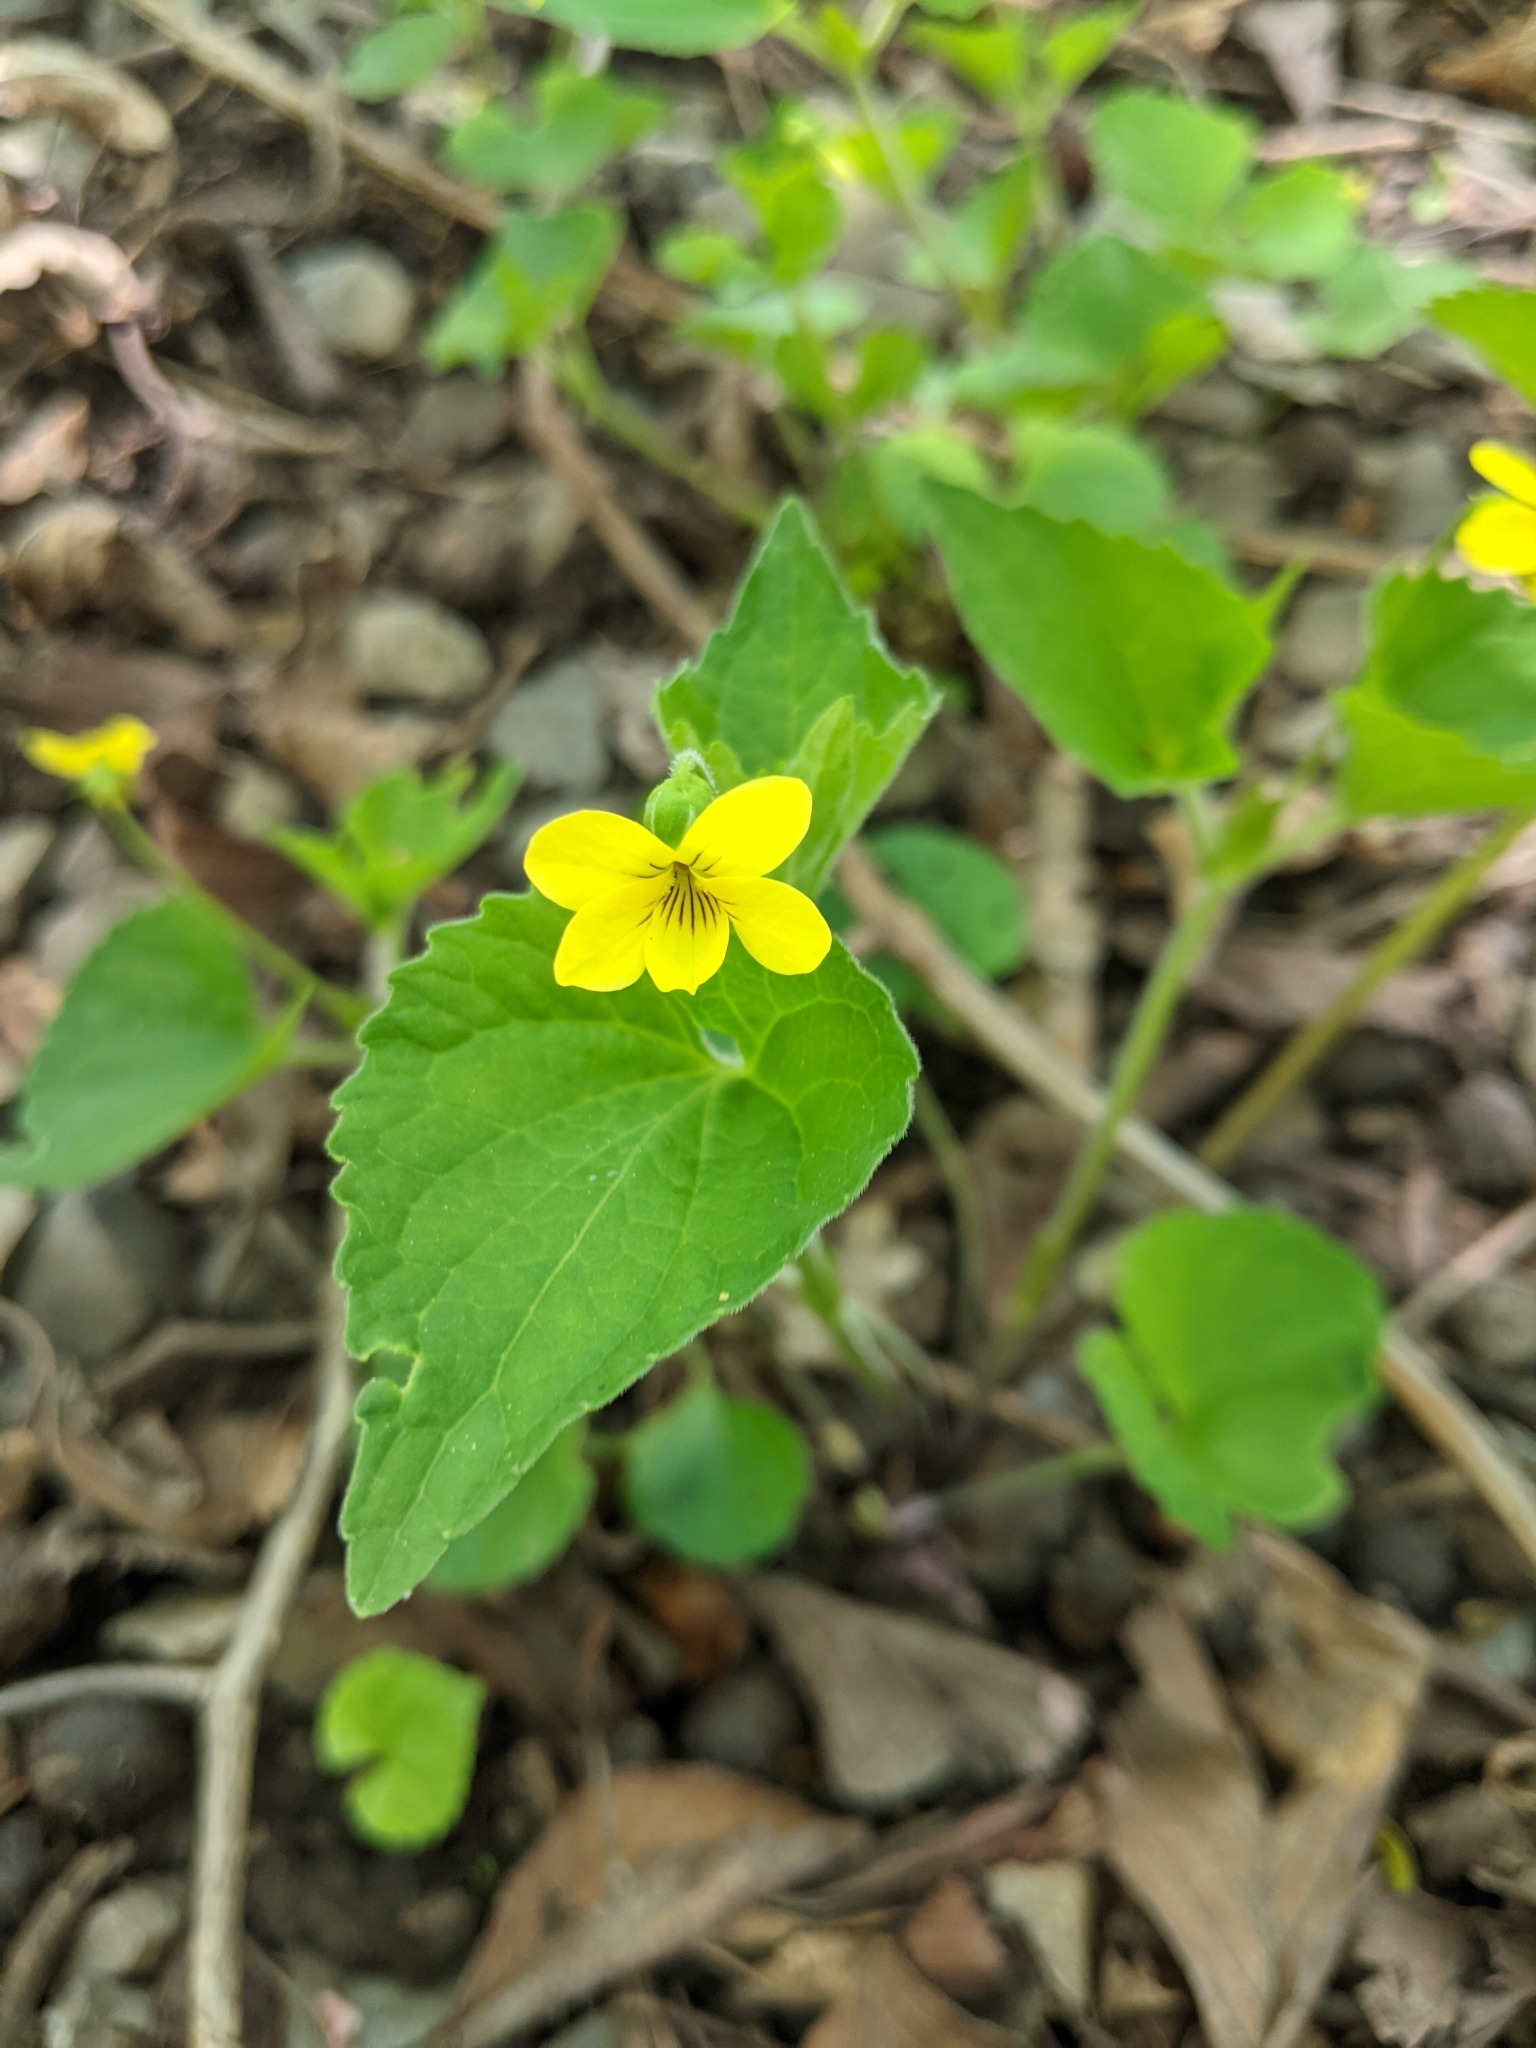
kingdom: Plantae
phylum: Tracheophyta
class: Magnoliopsida
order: Malpighiales
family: Violaceae
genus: Viola
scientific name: Viola eriocarpa
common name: Smooth yellow violet
